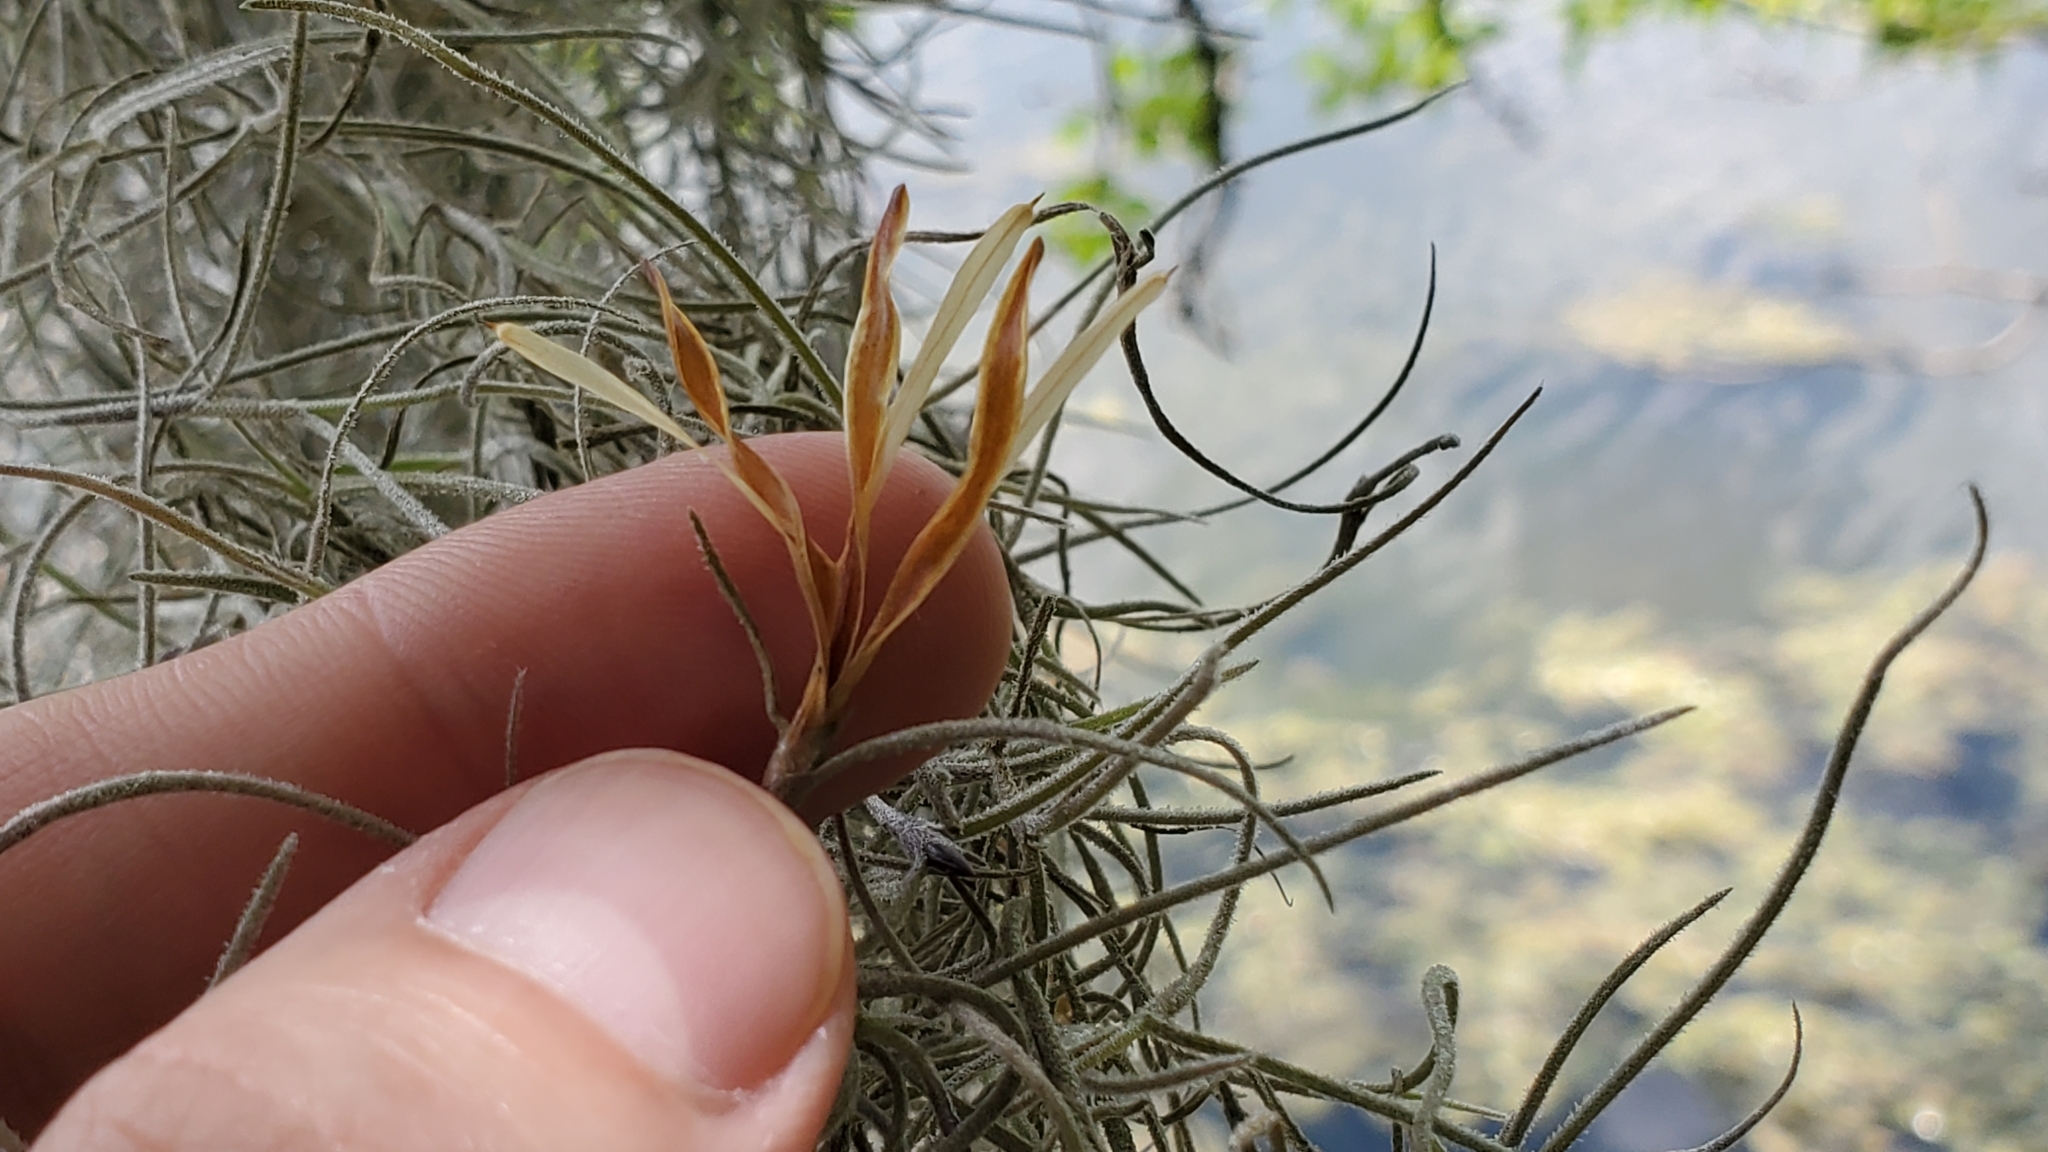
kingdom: Plantae
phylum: Tracheophyta
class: Liliopsida
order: Poales
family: Bromeliaceae
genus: Tillandsia
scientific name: Tillandsia usneoides
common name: Spanish moss
